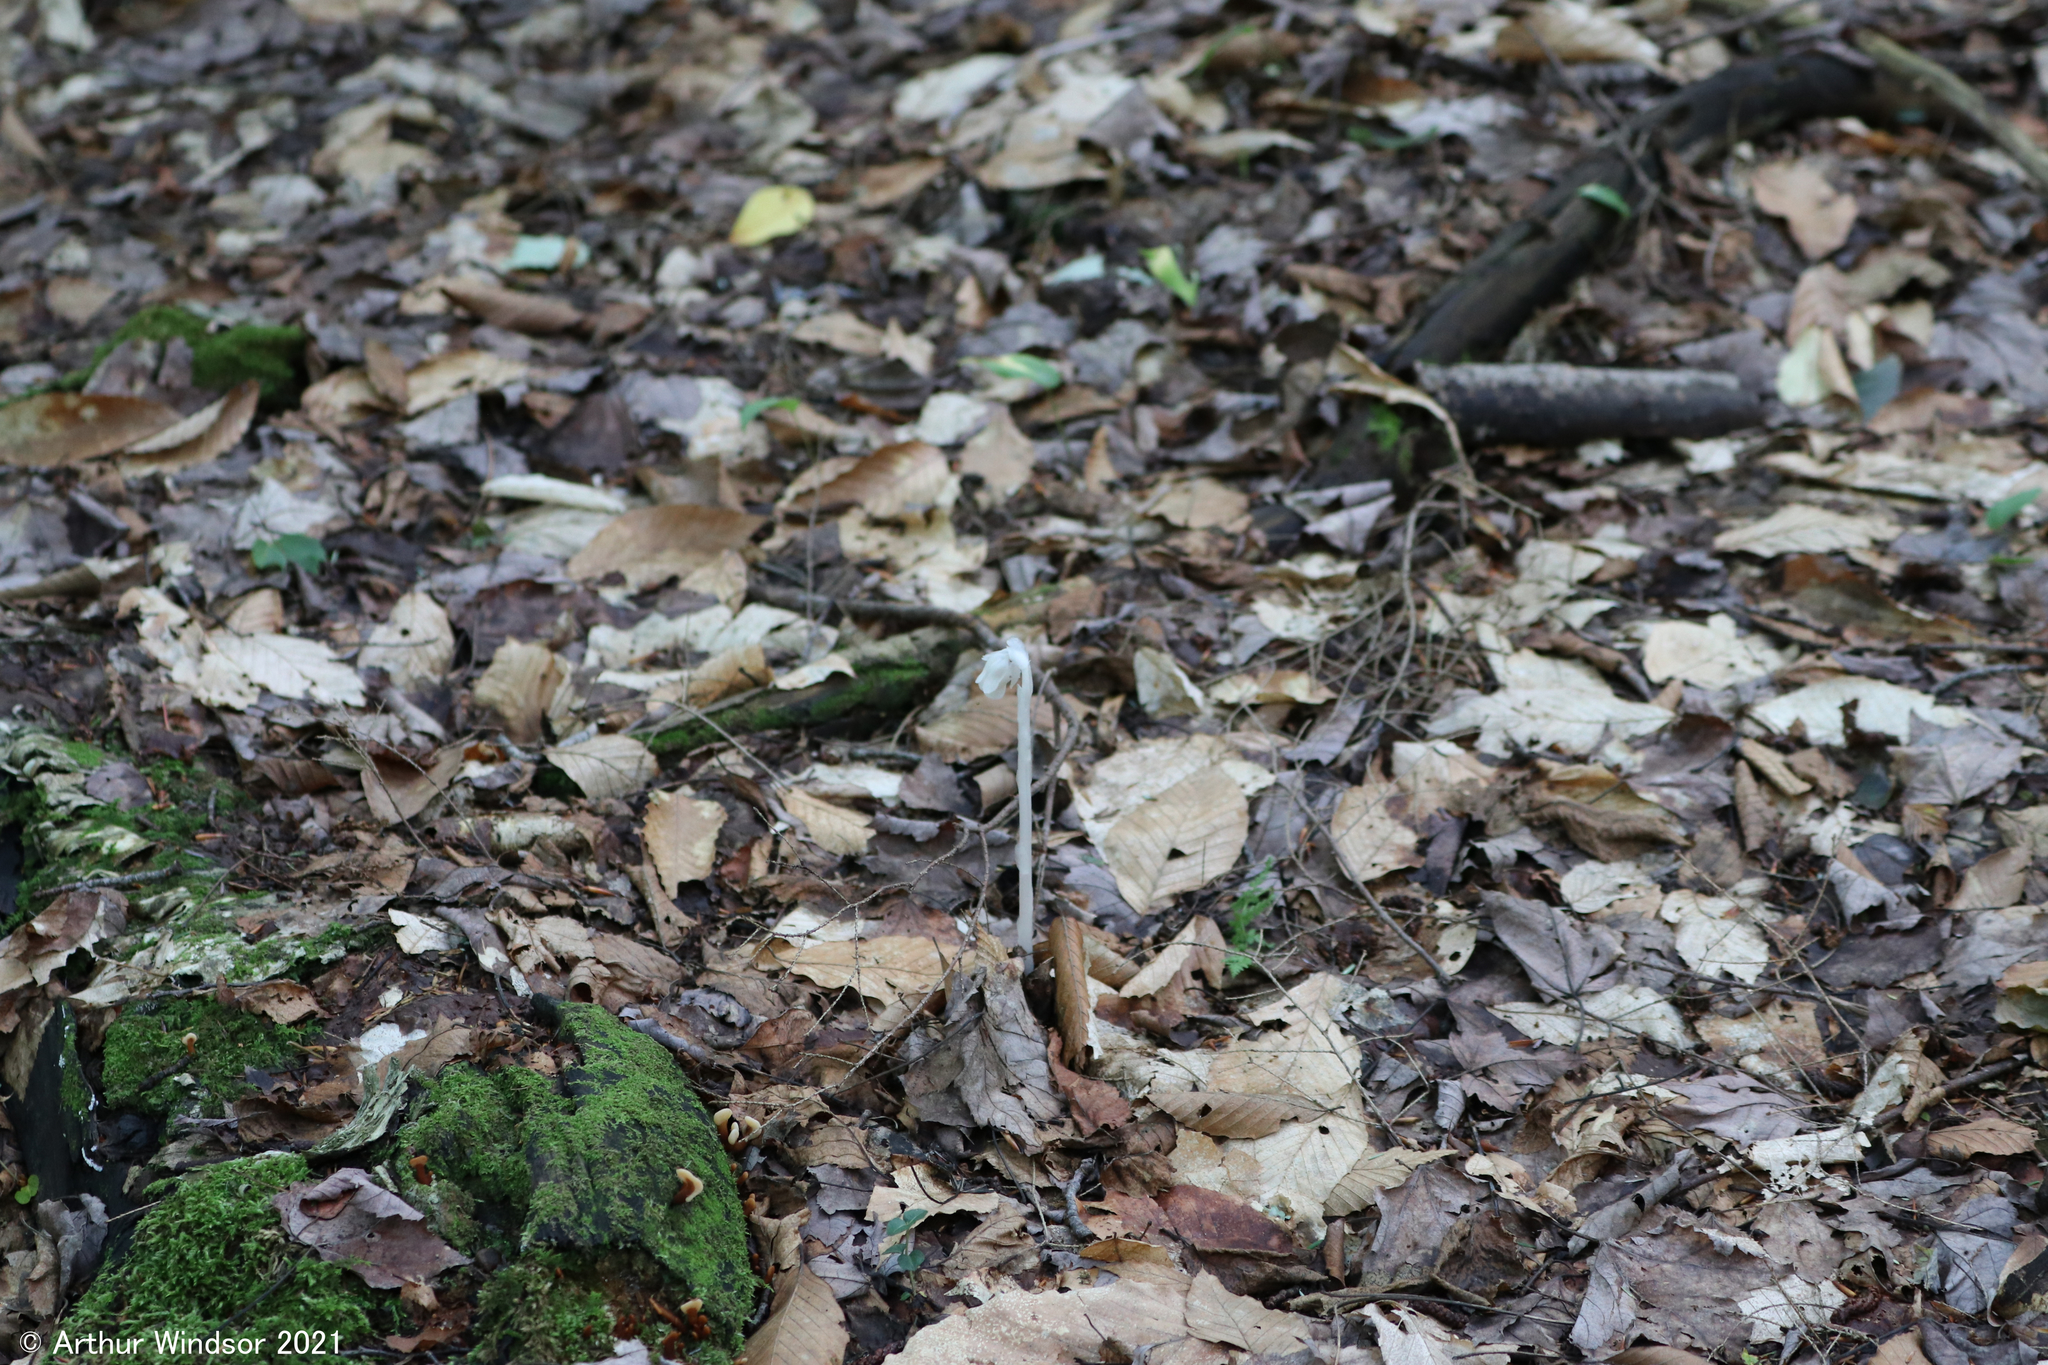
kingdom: Plantae
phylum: Tracheophyta
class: Magnoliopsida
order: Ericales
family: Ericaceae
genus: Monotropa
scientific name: Monotropa uniflora
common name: Convulsion root
